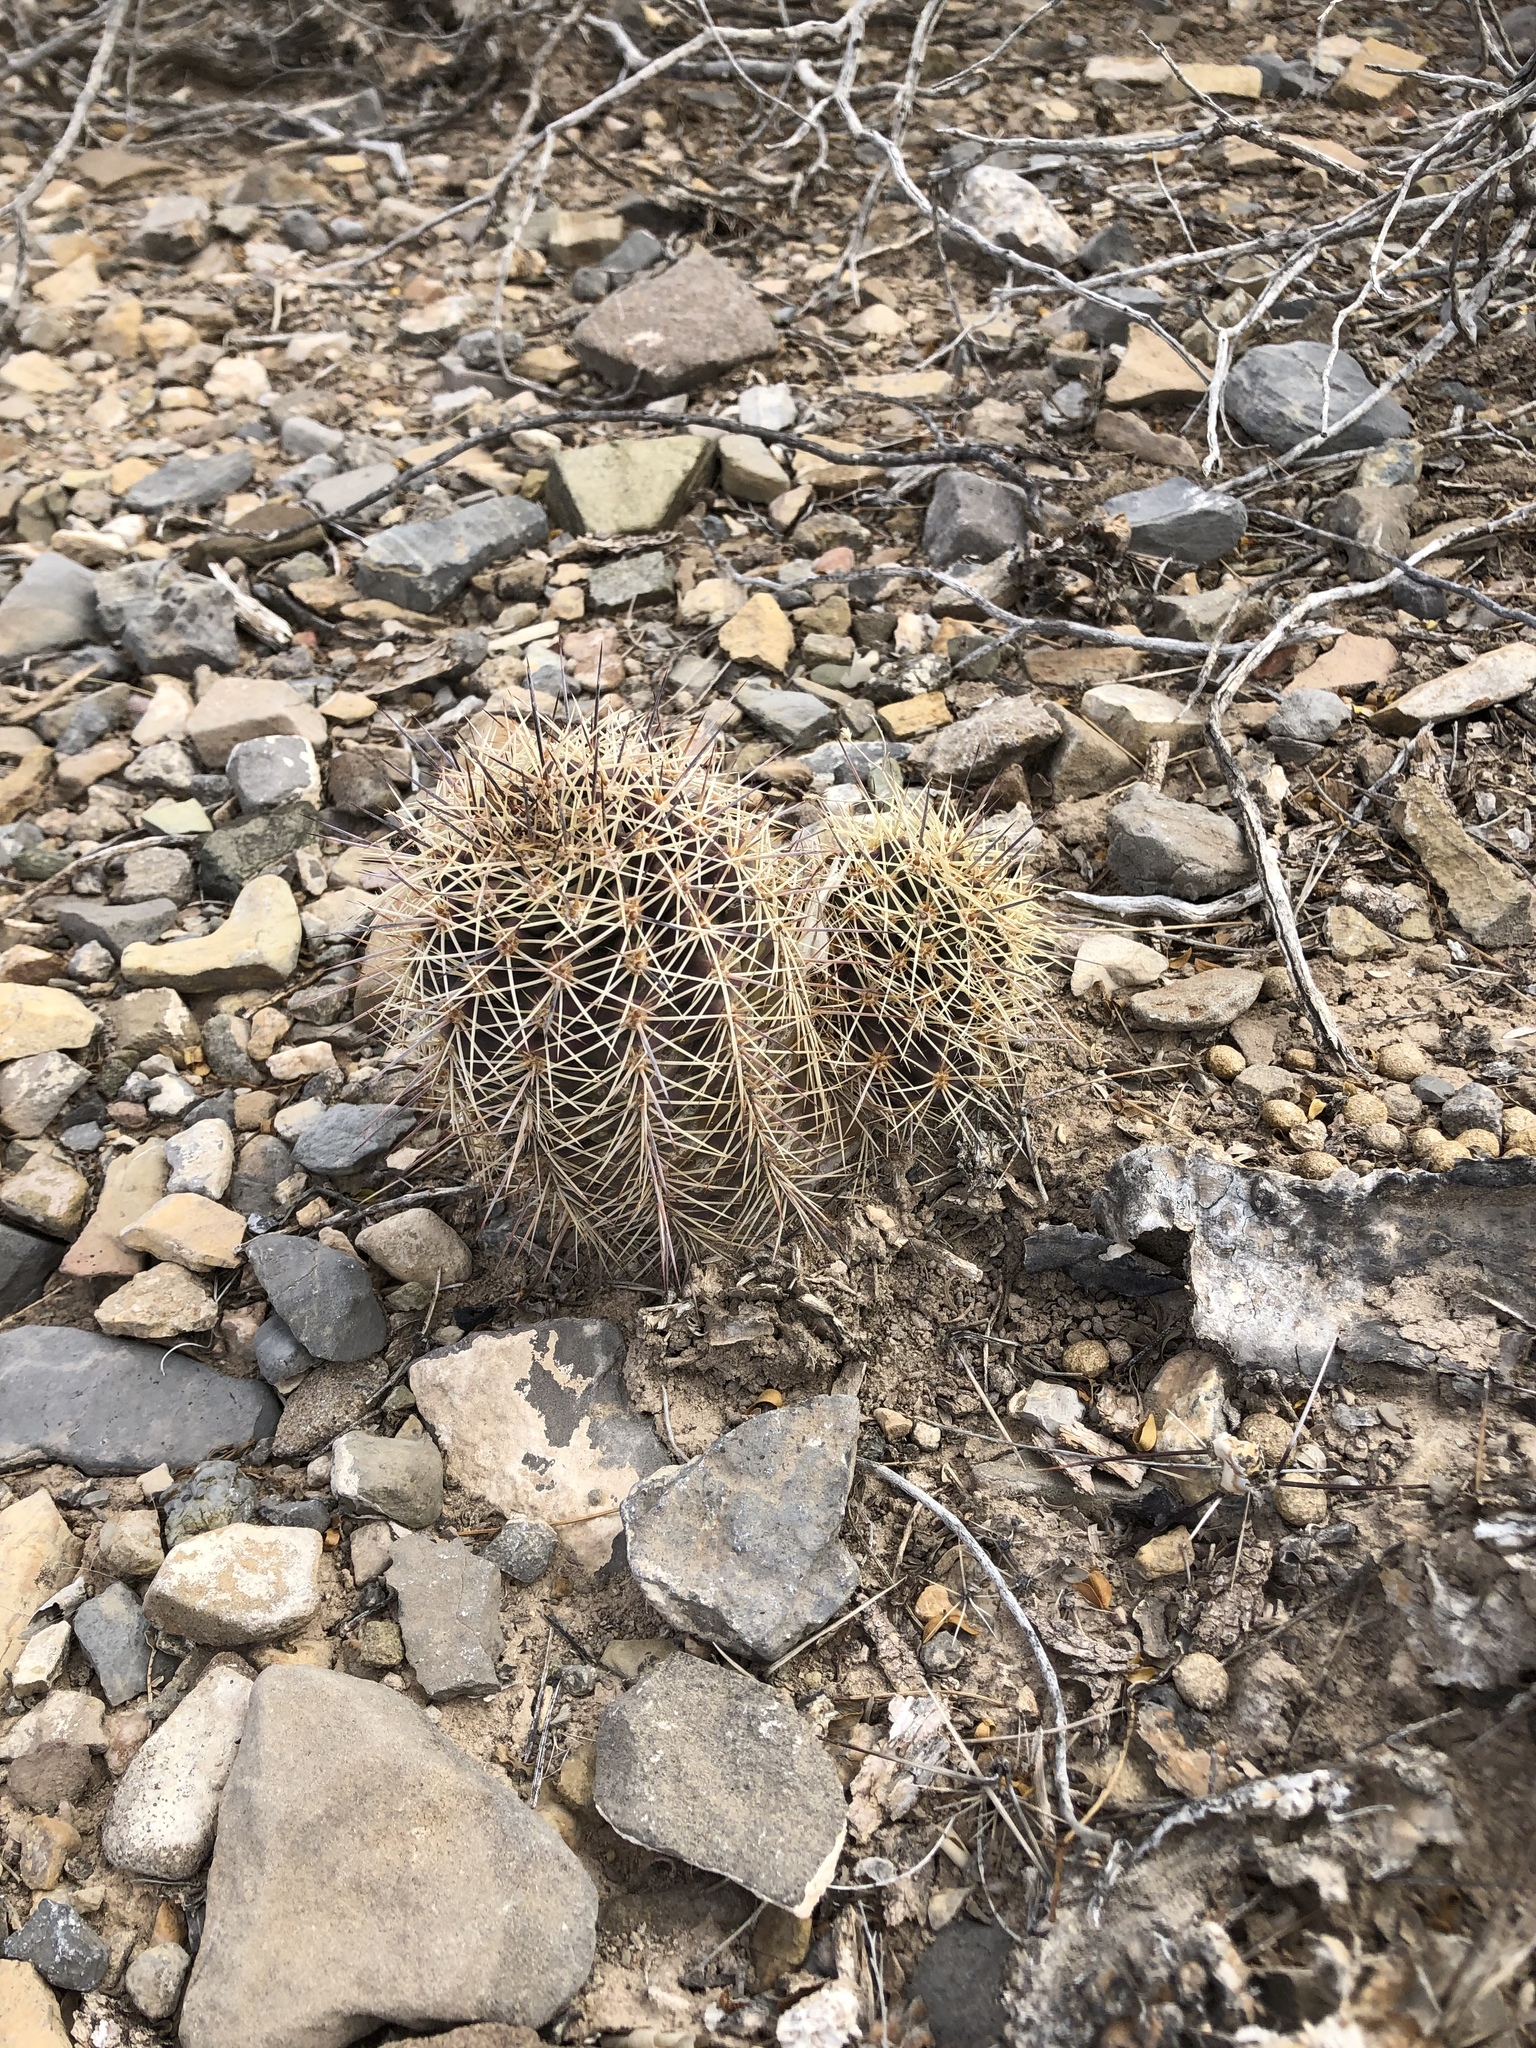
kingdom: Plantae
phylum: Tracheophyta
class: Magnoliopsida
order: Caryophyllales
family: Cactaceae
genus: Echinocereus
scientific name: Echinocereus coccineus
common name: Scarlet hedgehog cactus
